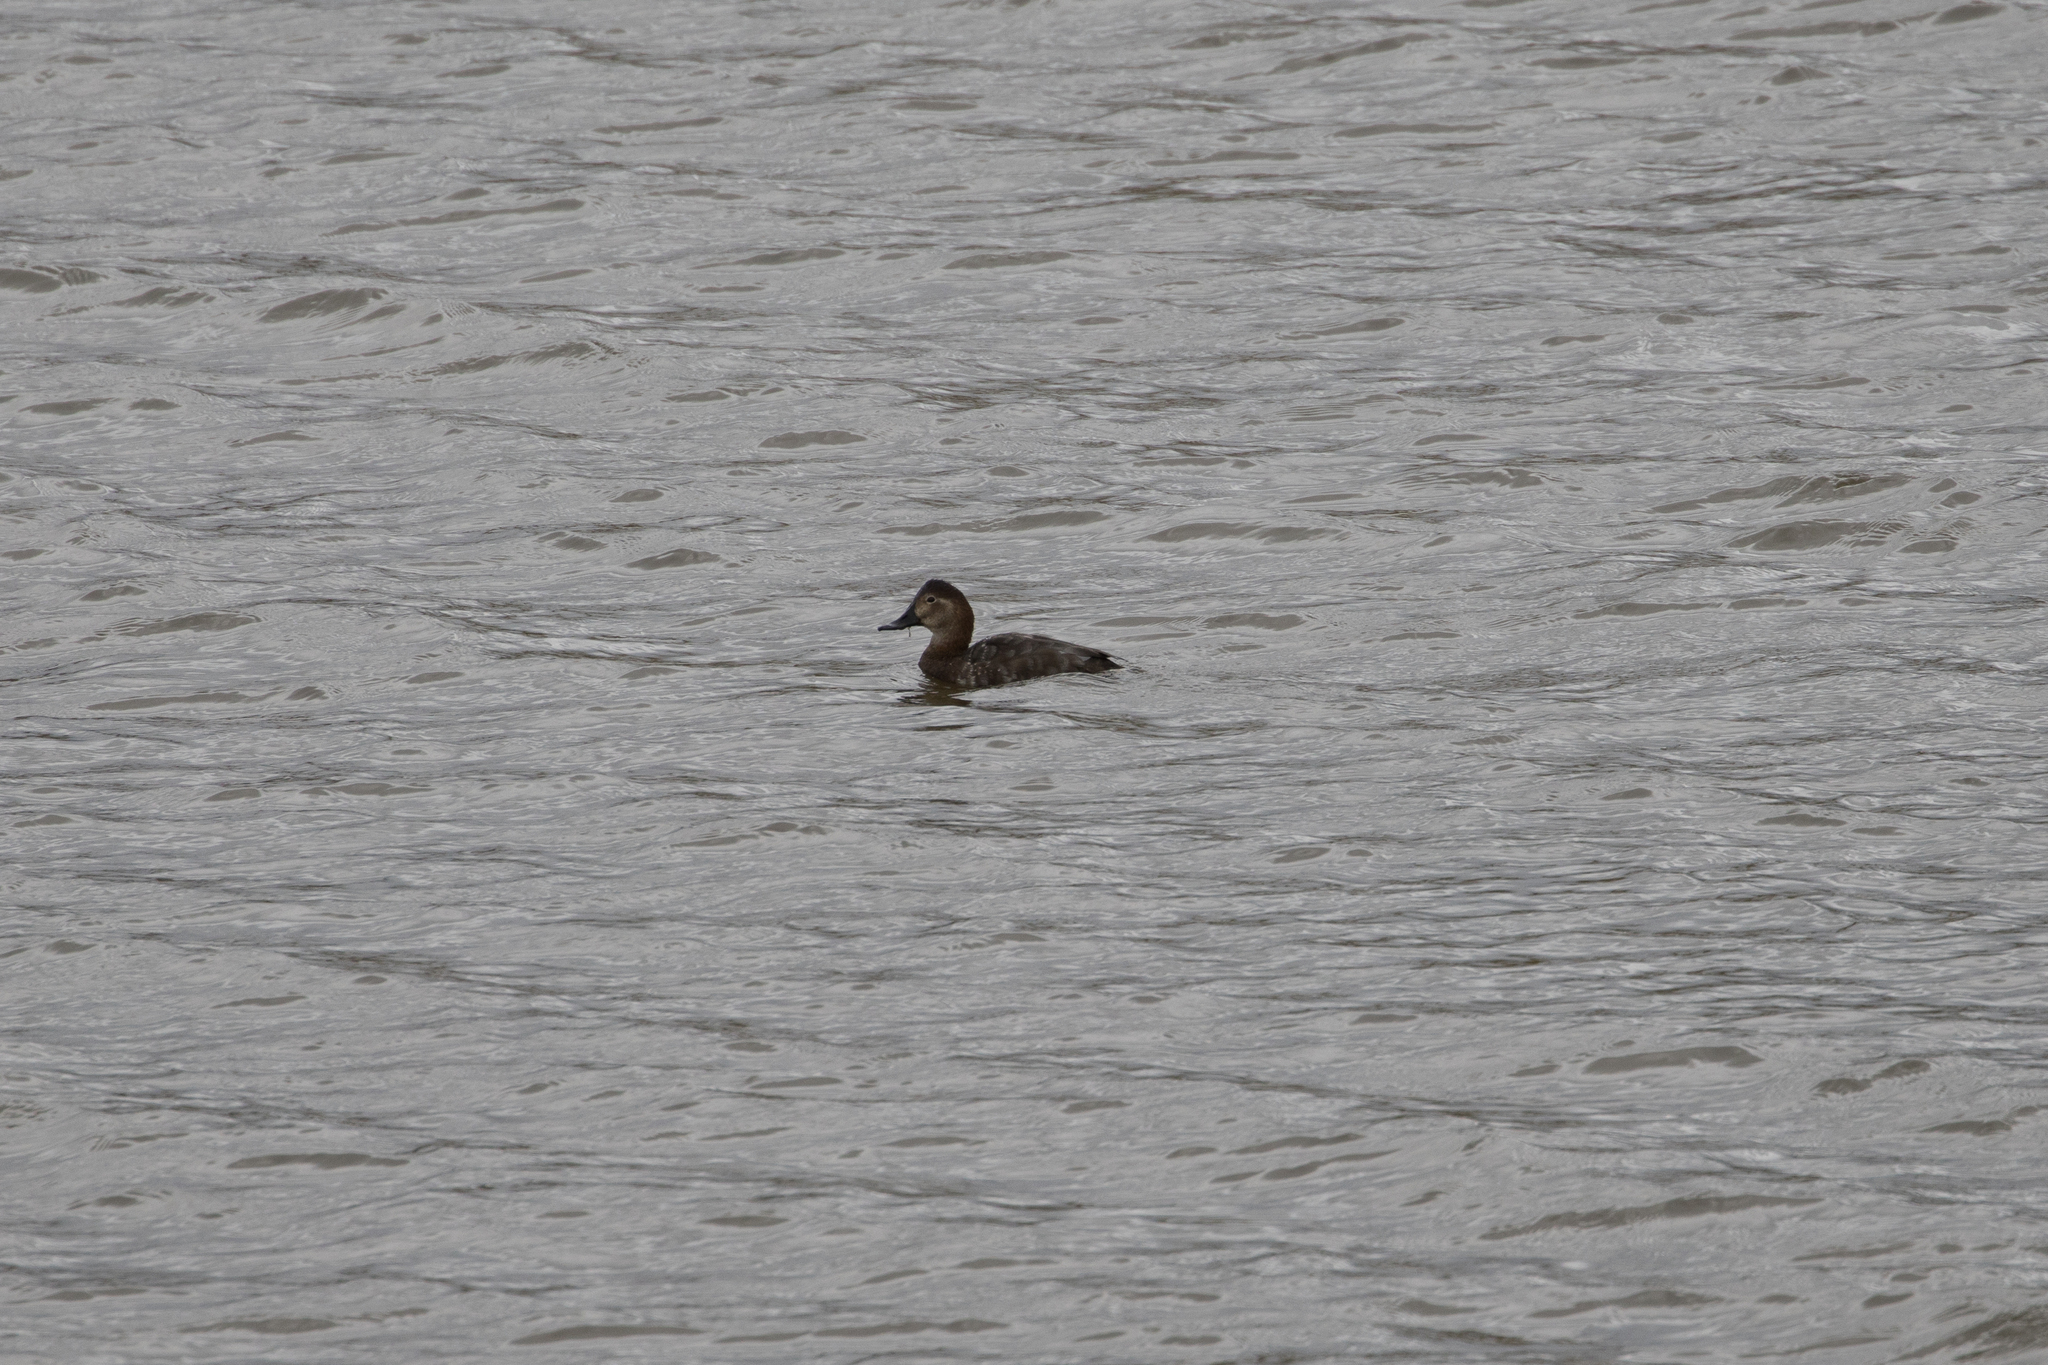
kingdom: Animalia
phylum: Chordata
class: Aves
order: Anseriformes
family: Anatidae
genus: Aythya
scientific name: Aythya ferina
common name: Common pochard
